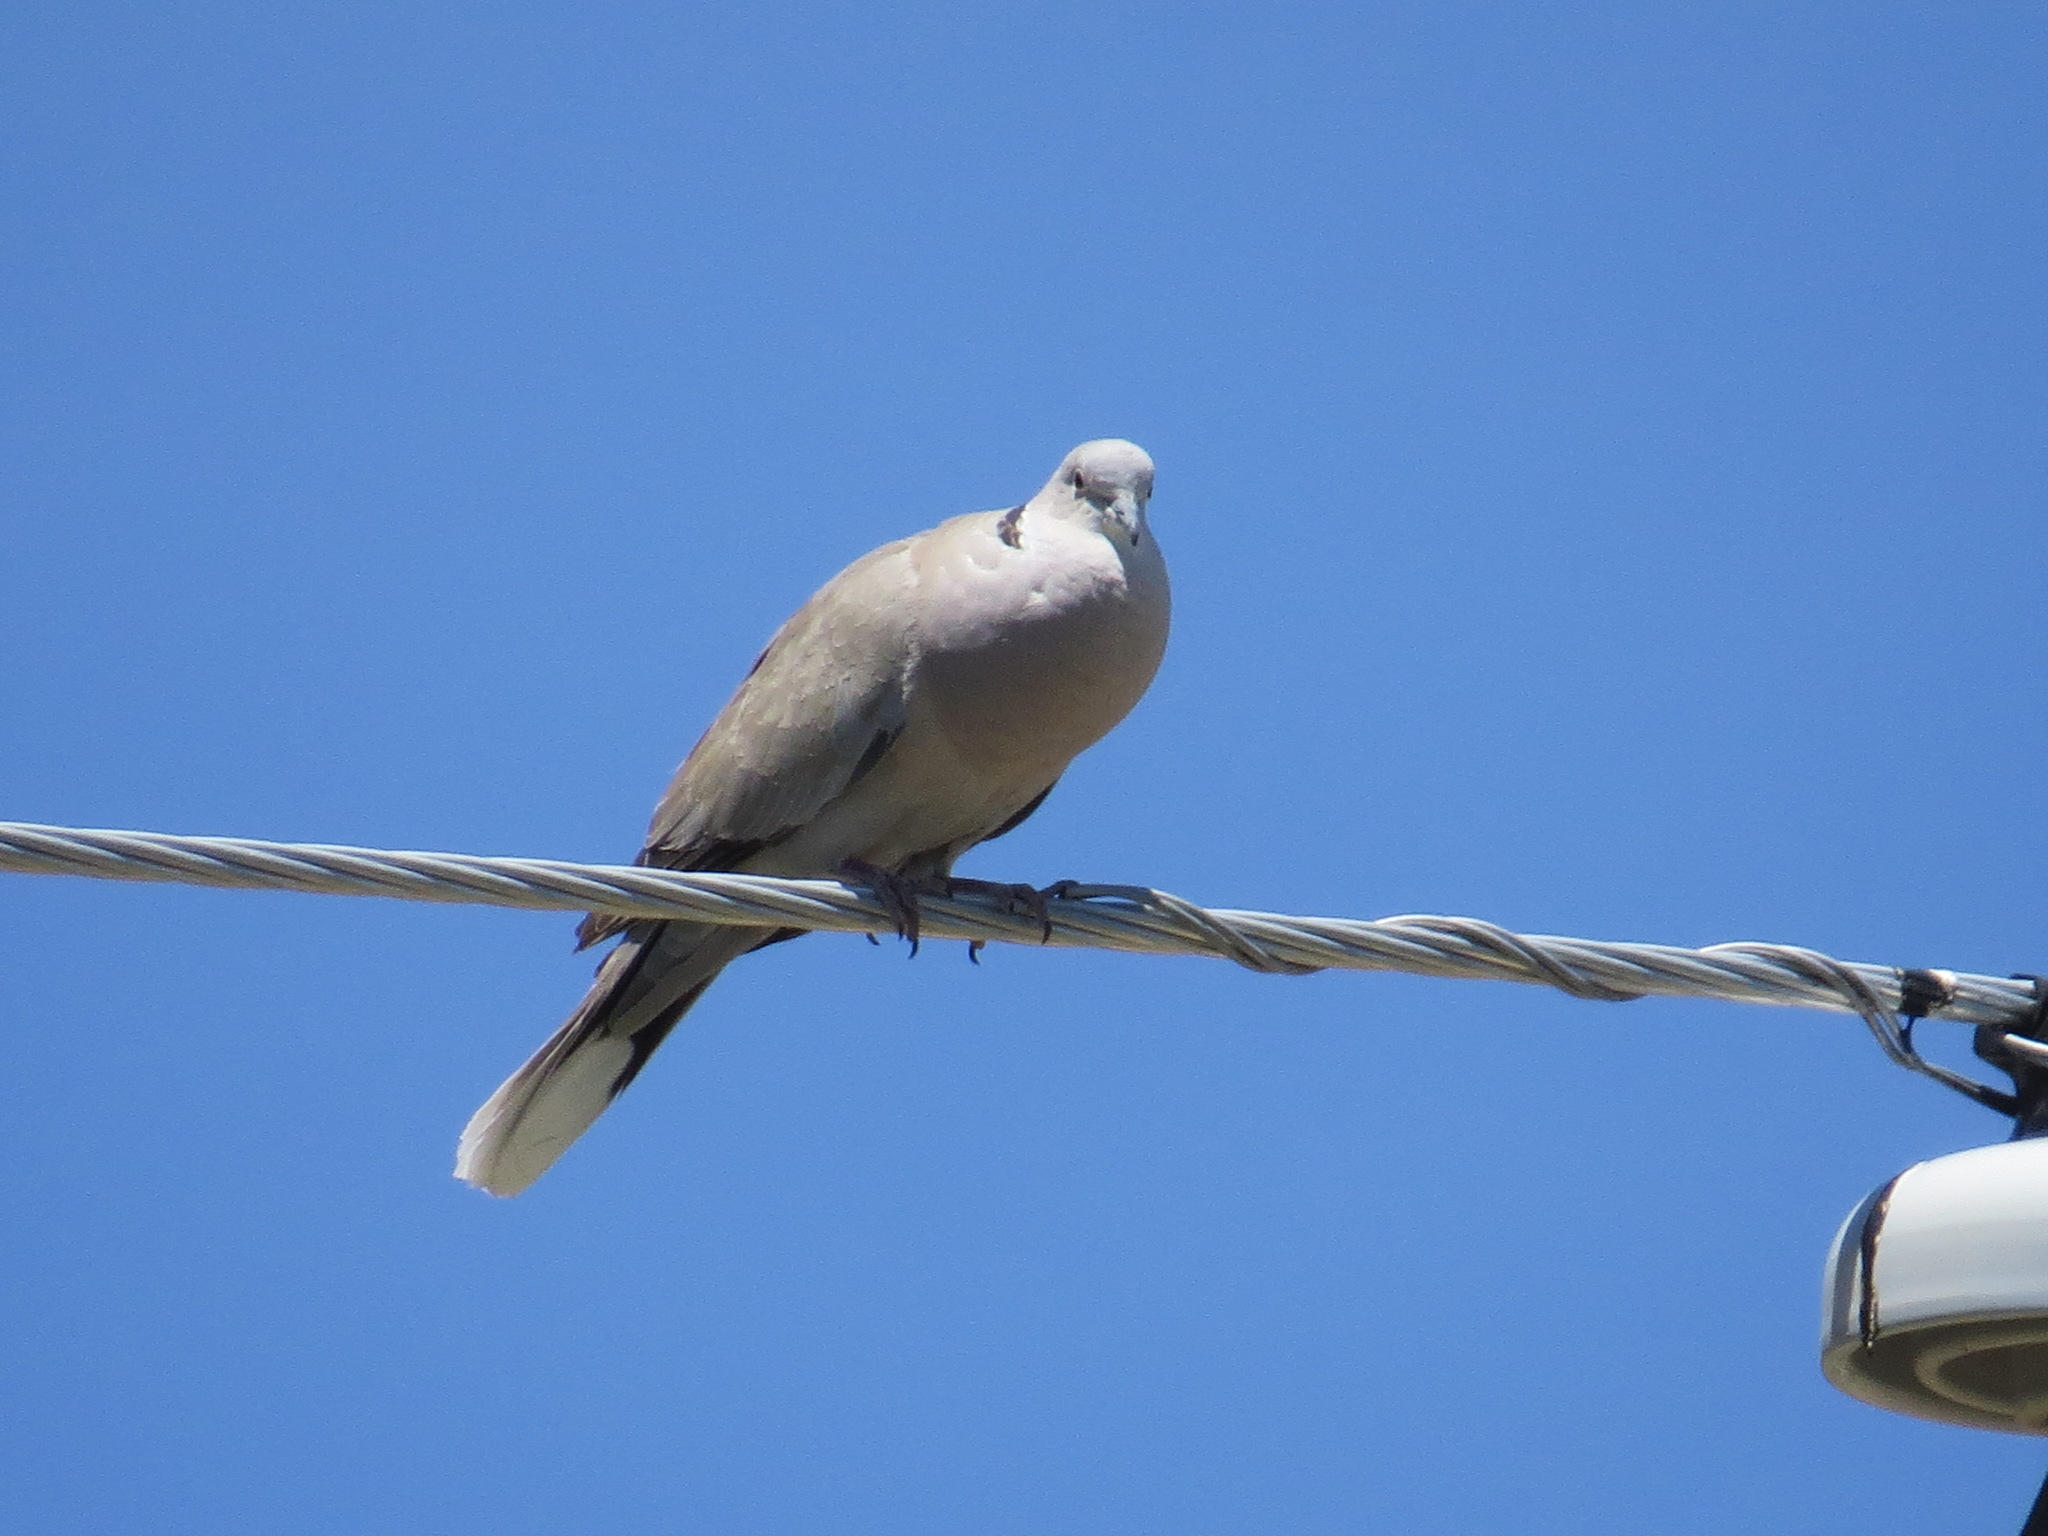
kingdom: Animalia
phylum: Chordata
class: Aves
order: Columbiformes
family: Columbidae
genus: Streptopelia
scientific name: Streptopelia decaocto
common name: Eurasian collared dove
